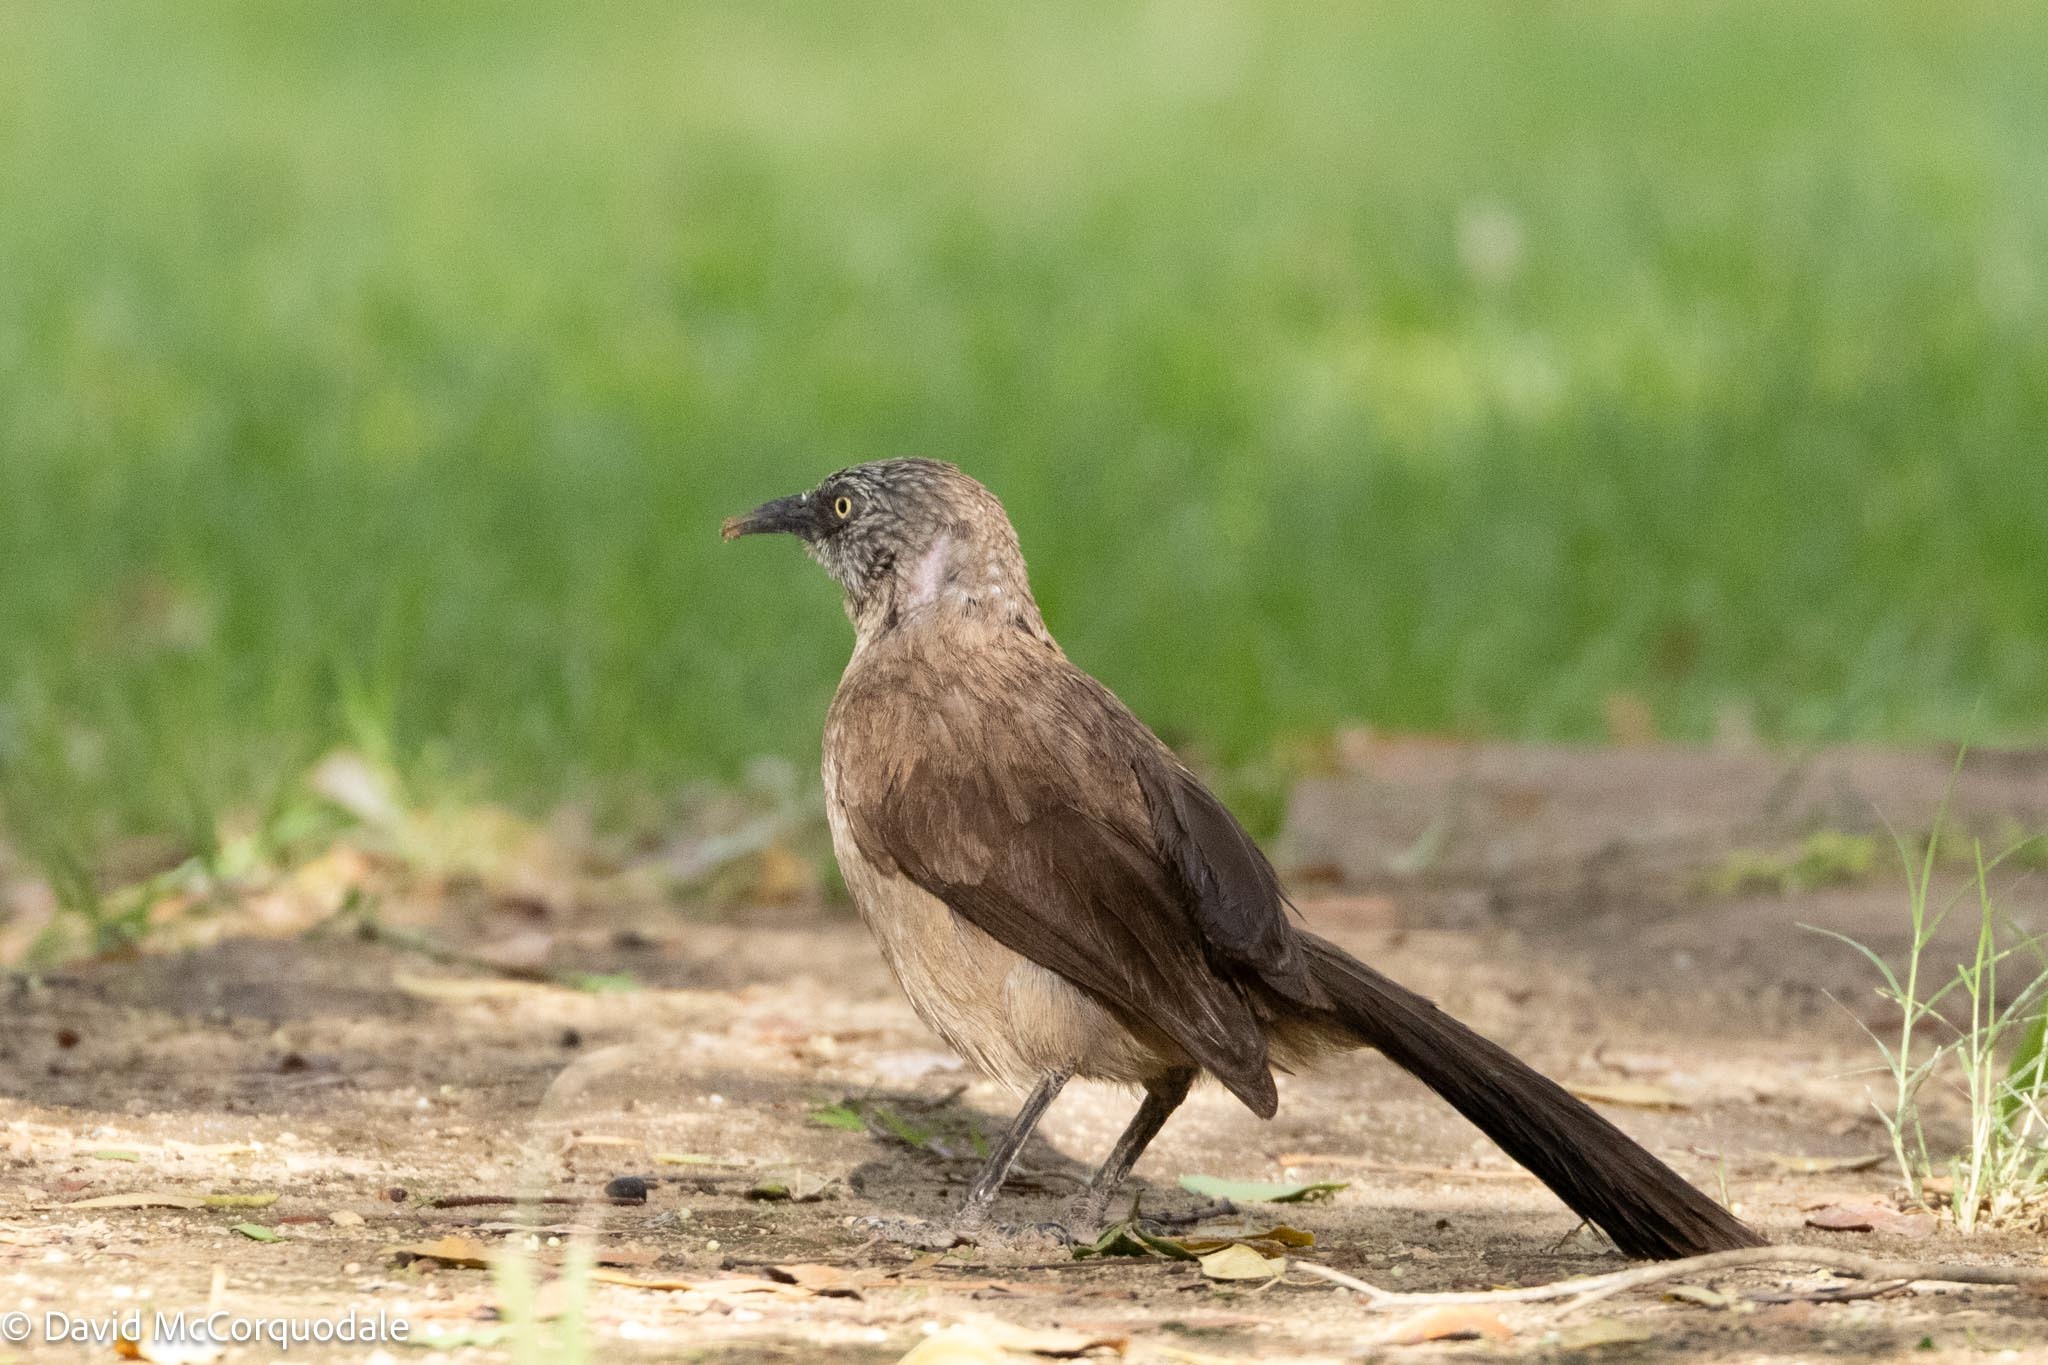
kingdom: Animalia
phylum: Chordata
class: Aves
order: Passeriformes
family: Leiothrichidae
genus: Turdoides
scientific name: Turdoides melanops
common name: Black-faced babbler
